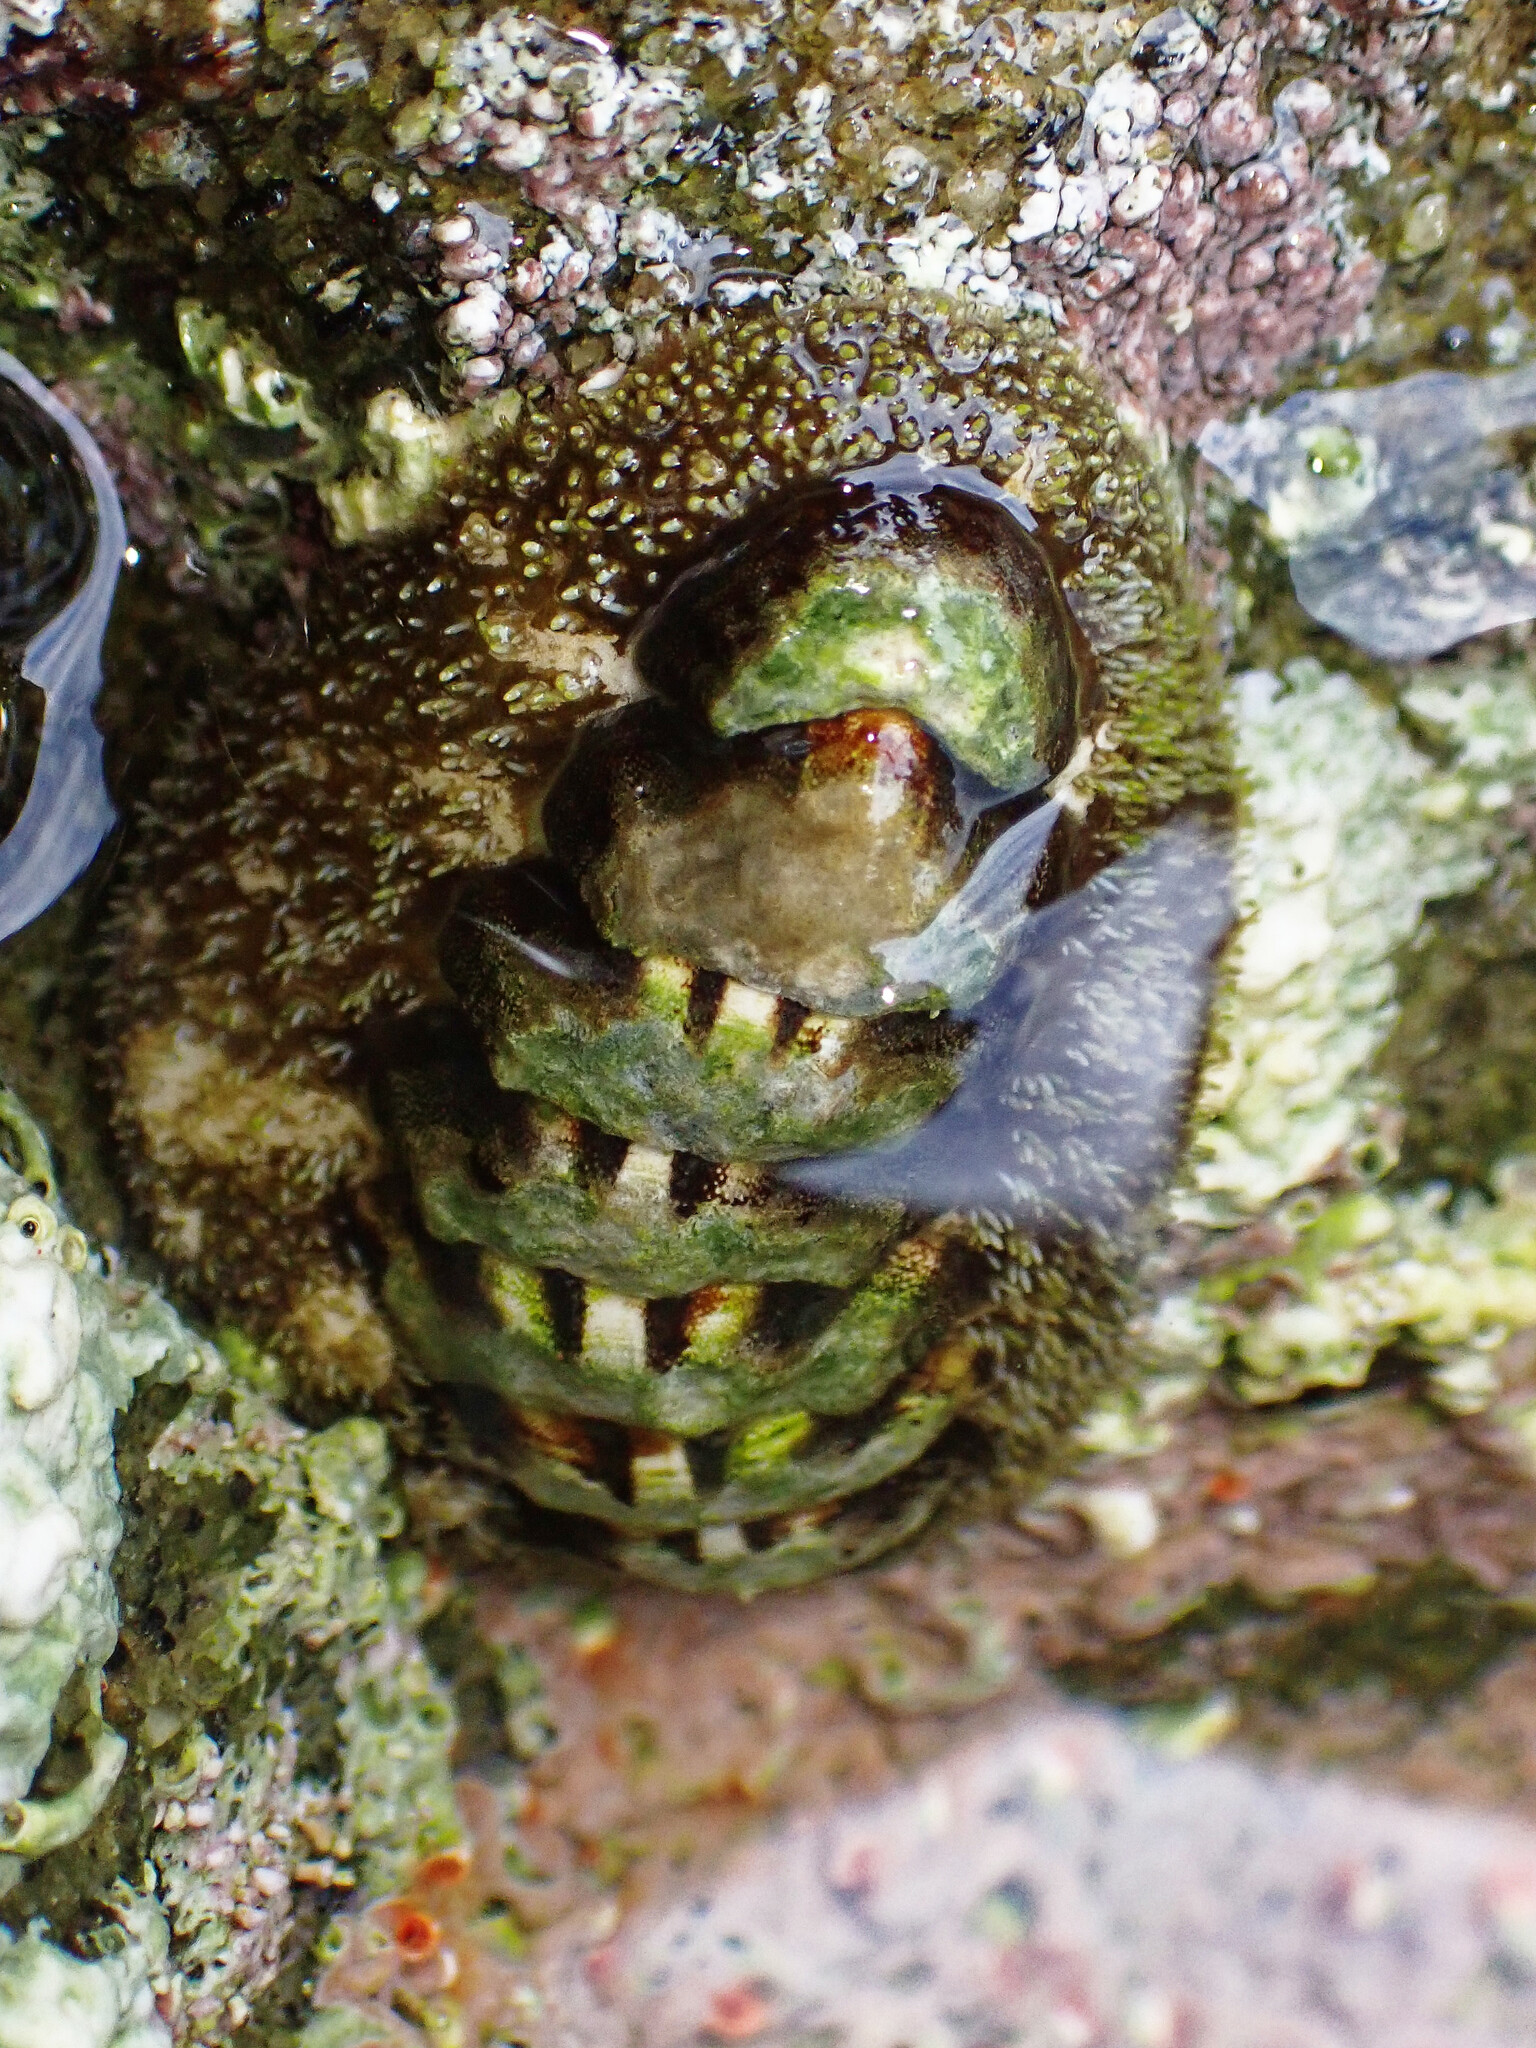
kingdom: Animalia
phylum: Mollusca
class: Polyplacophora
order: Chitonida
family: Tonicellidae
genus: Nuttallina
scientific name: Nuttallina californica
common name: California nuttall chiton
